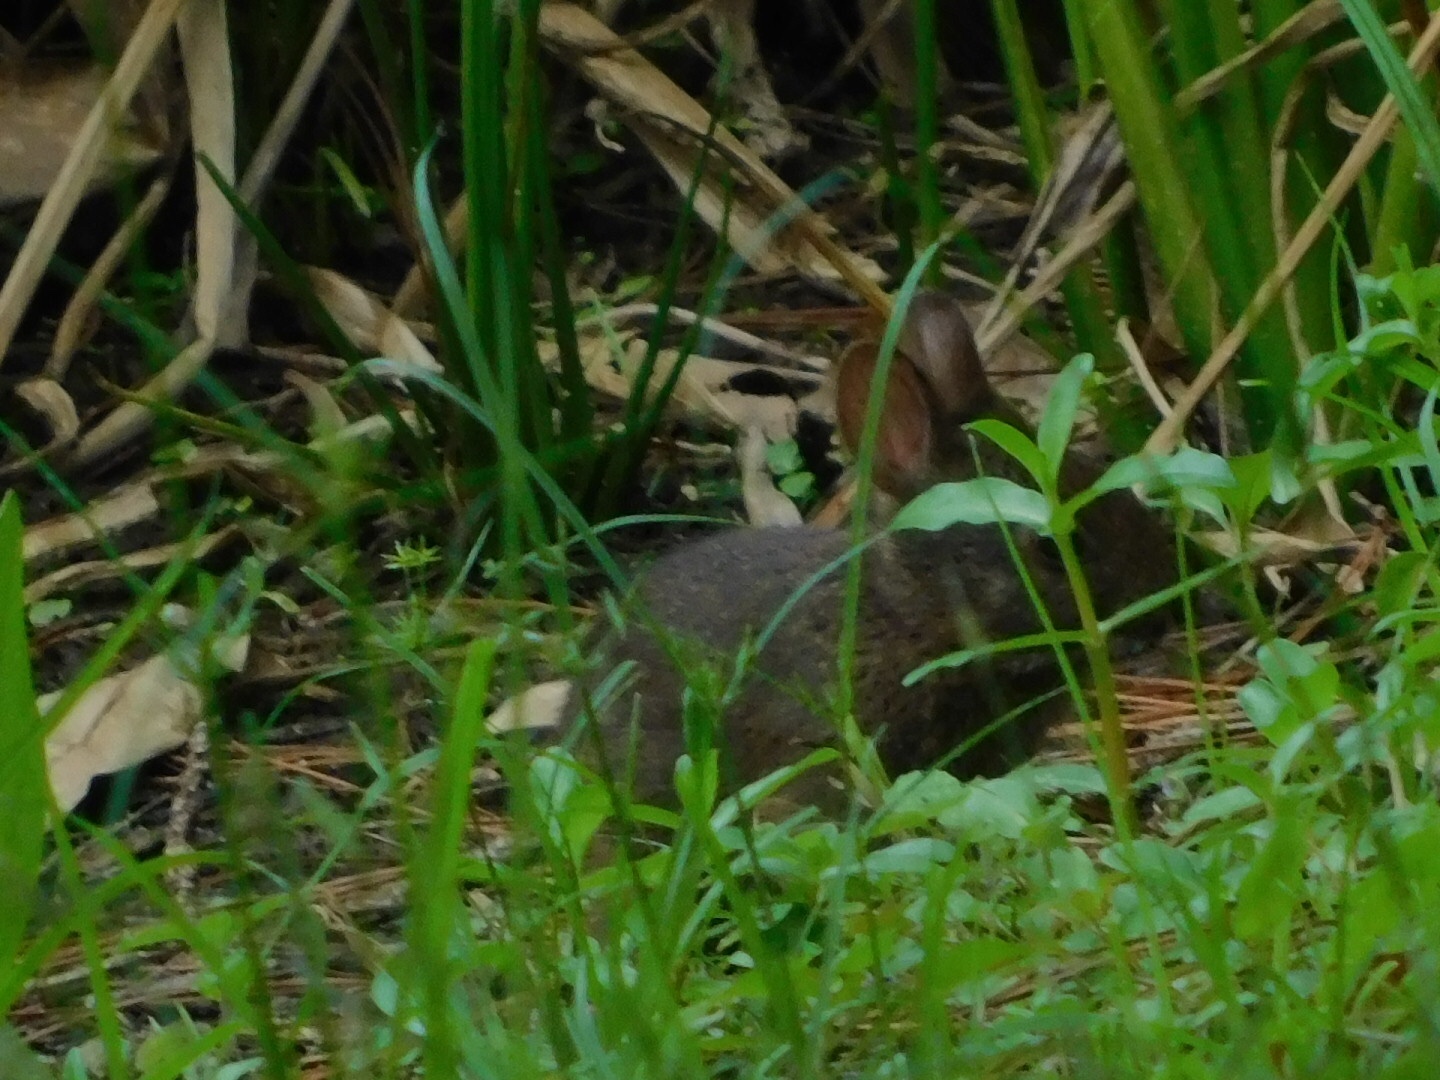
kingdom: Animalia
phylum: Chordata
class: Mammalia
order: Lagomorpha
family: Leporidae
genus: Sylvilagus
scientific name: Sylvilagus palustris
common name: Marsh rabbit
